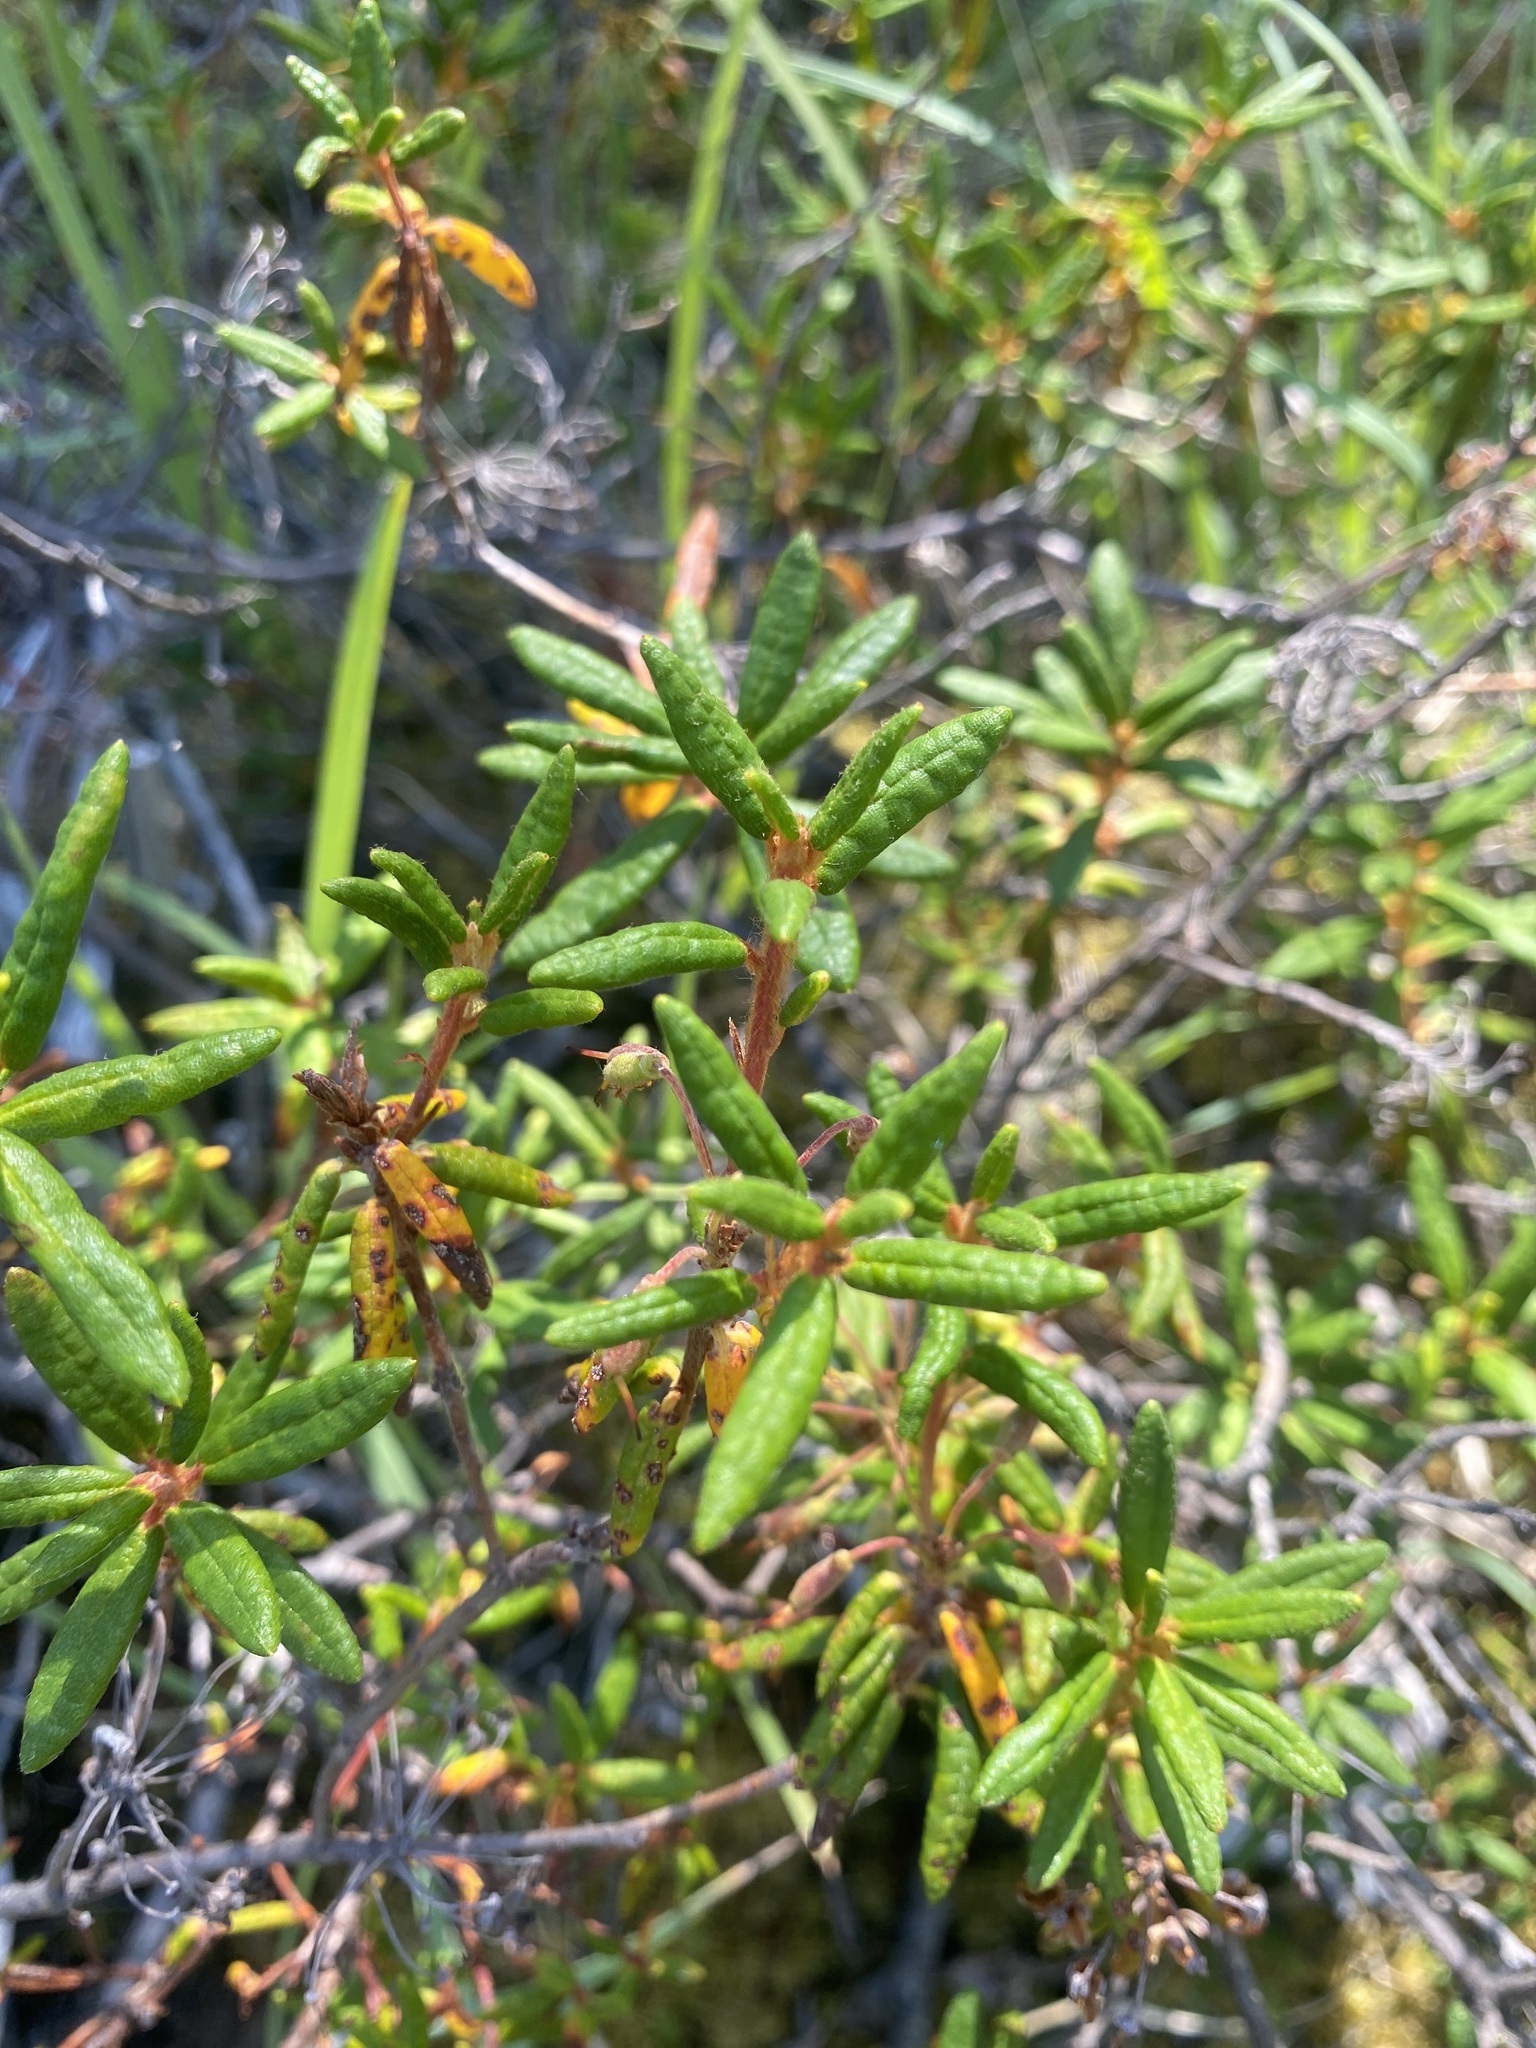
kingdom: Plantae
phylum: Tracheophyta
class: Magnoliopsida
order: Ericales
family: Ericaceae
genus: Rhododendron
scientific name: Rhododendron groenlandicum
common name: Bog labrador tea
